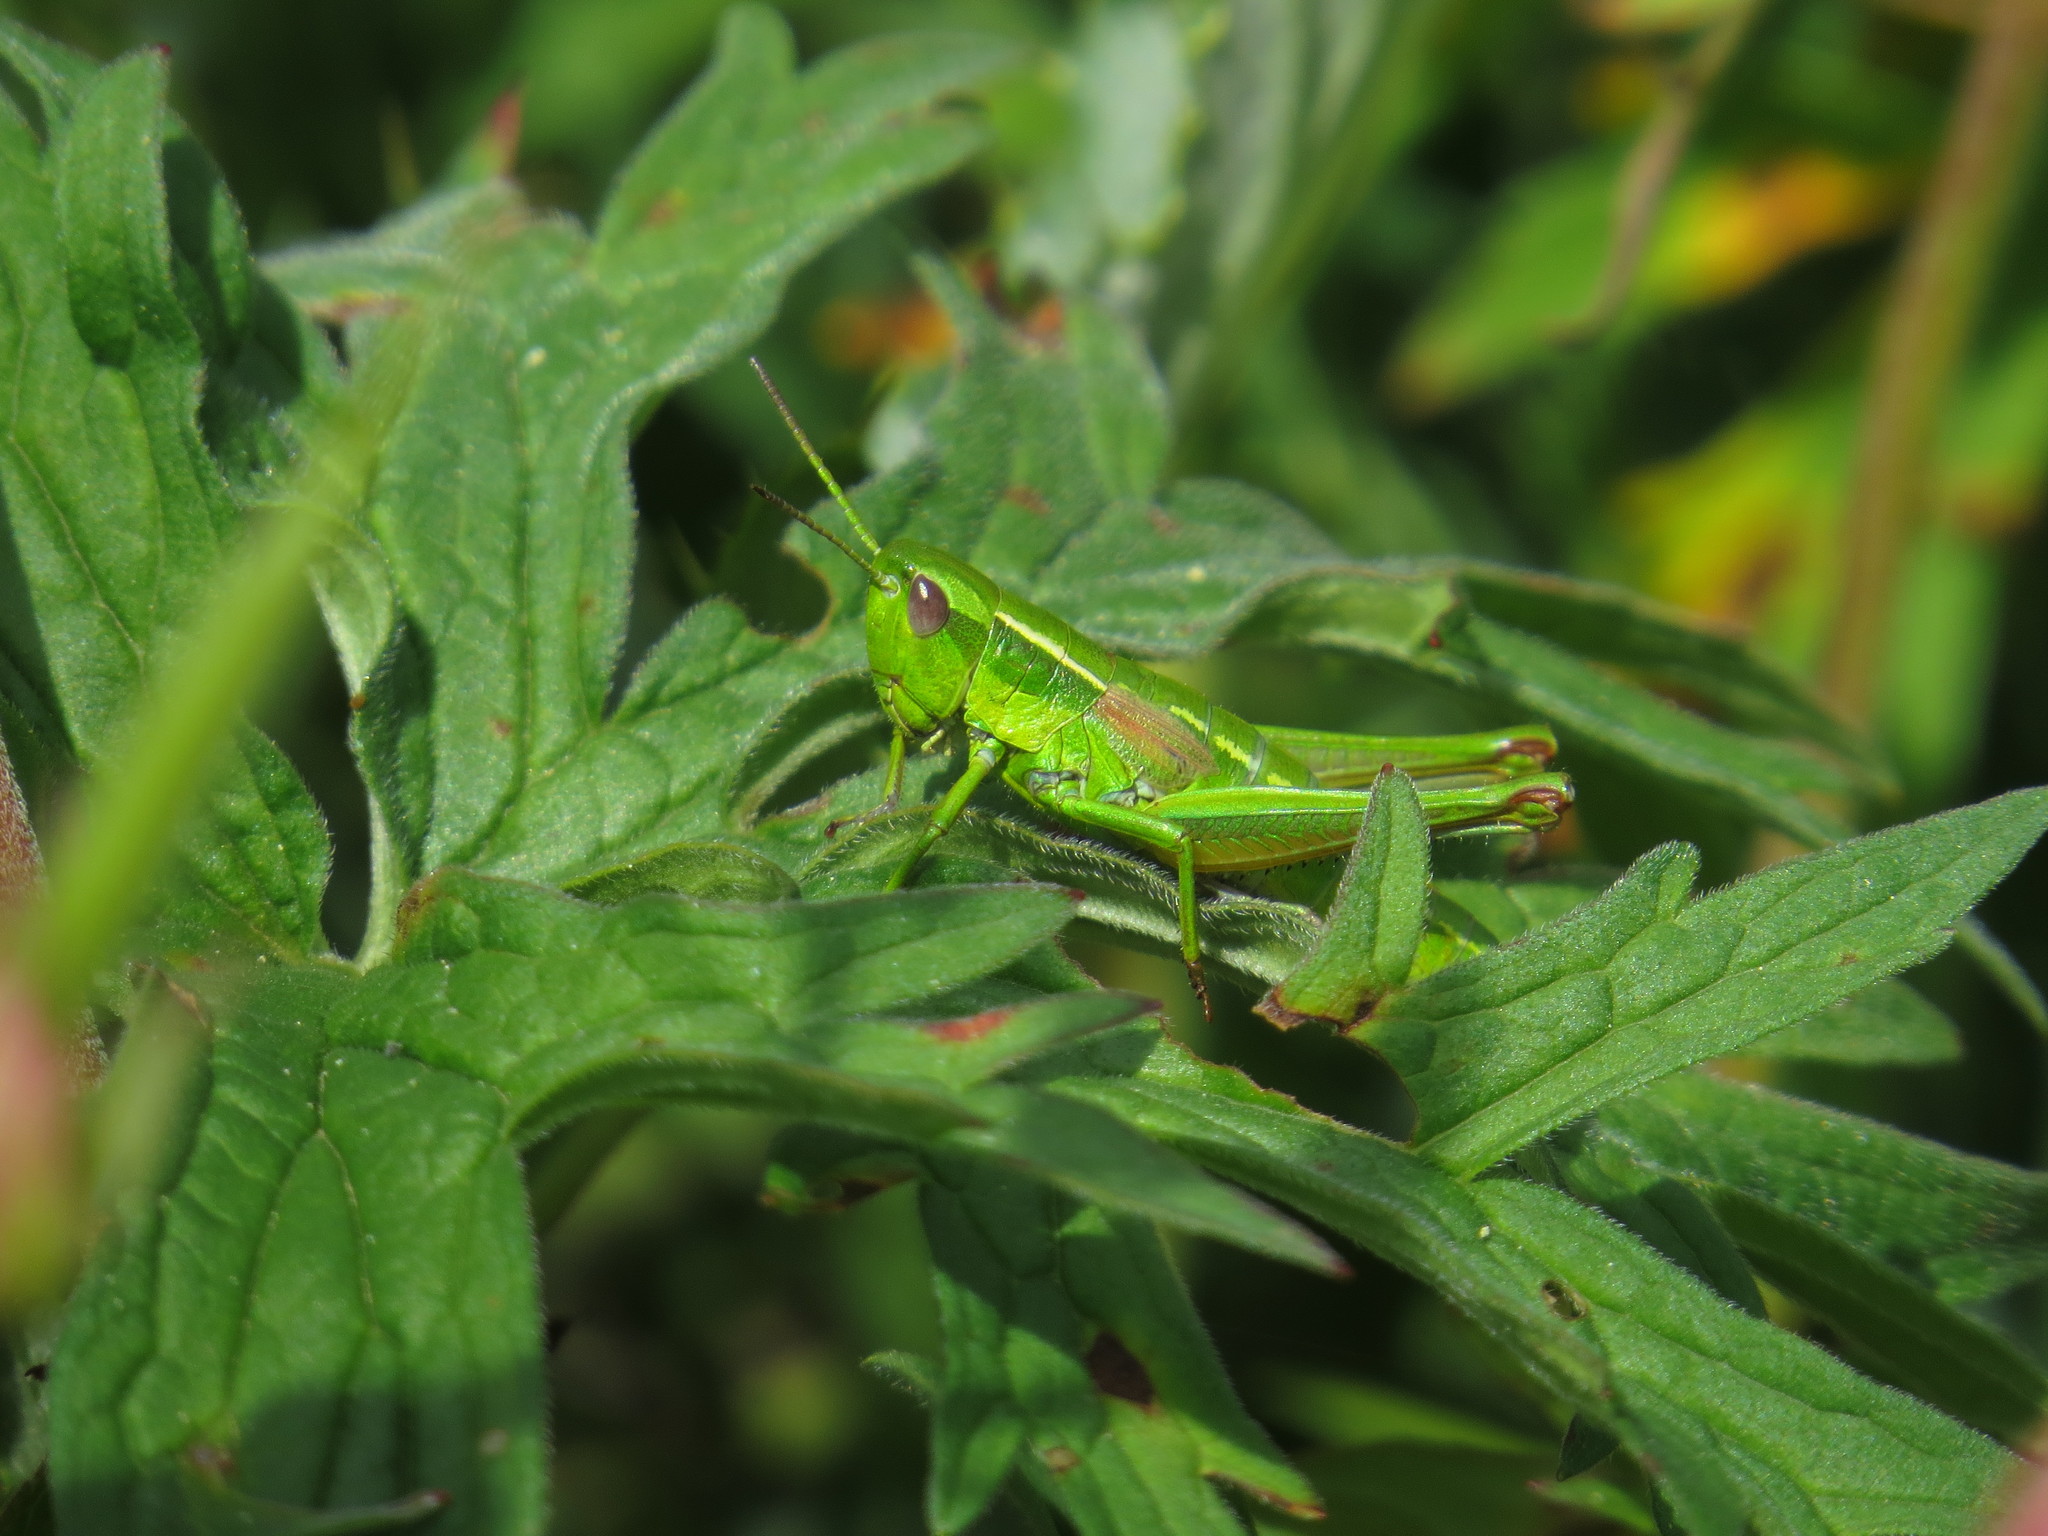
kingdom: Animalia
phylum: Arthropoda
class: Insecta
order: Orthoptera
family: Acrididae
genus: Euthystira
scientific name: Euthystira brachyptera
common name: Small gold grasshopper
